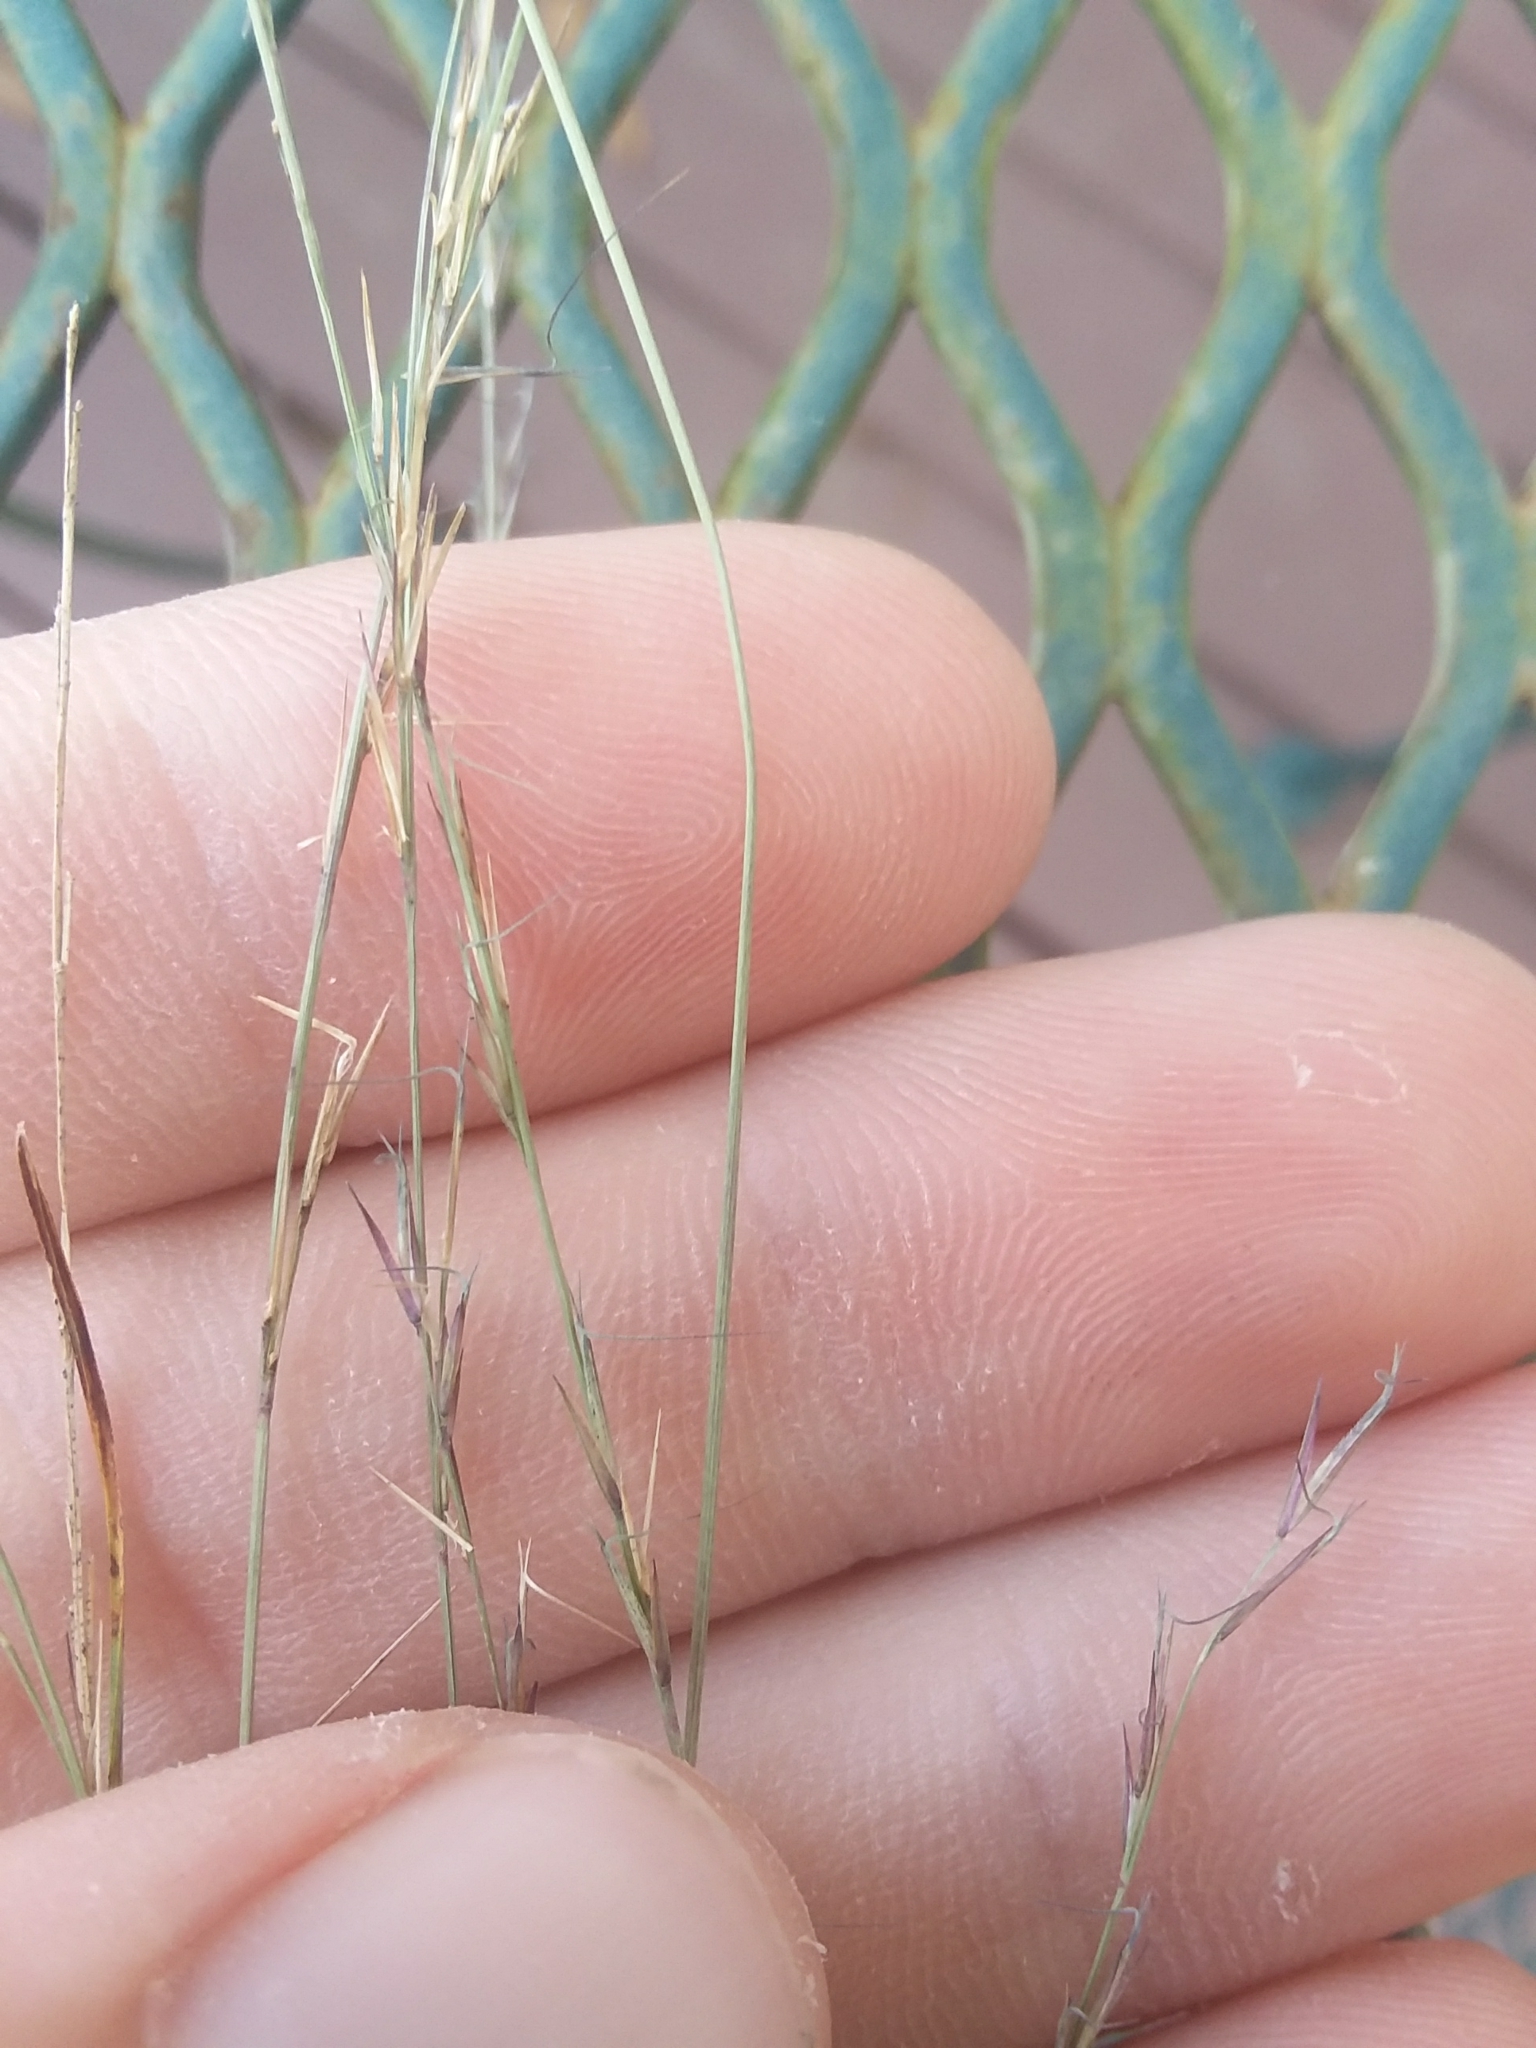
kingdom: Plantae
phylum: Tracheophyta
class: Liliopsida
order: Poales
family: Poaceae
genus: Aristida
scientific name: Aristida longespica
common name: Long-spiked triple-awned grass
